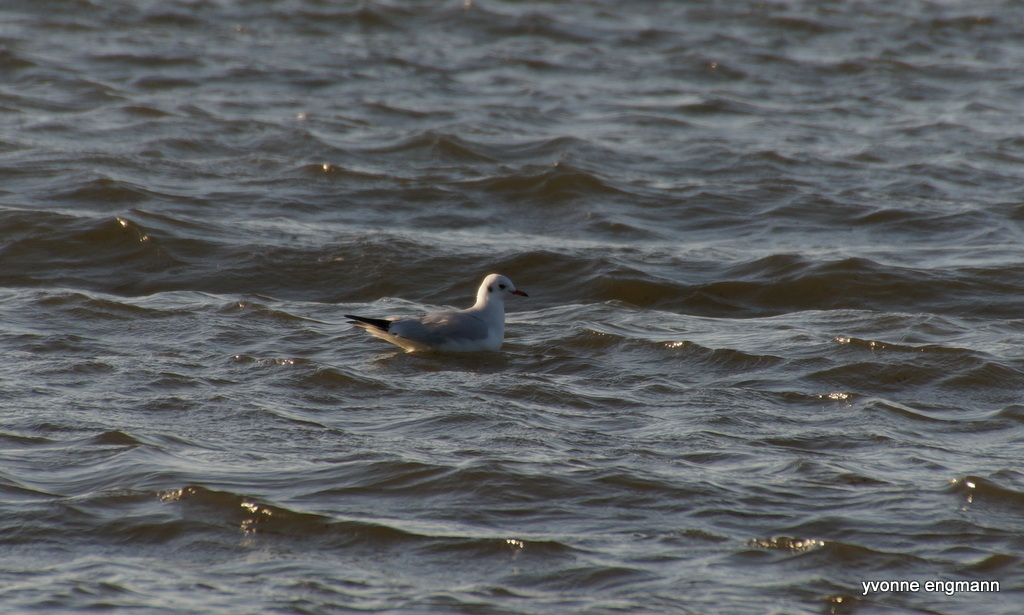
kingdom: Animalia
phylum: Chordata
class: Aves
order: Charadriiformes
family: Laridae
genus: Chroicocephalus
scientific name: Chroicocephalus ridibundus
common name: Black-headed gull
